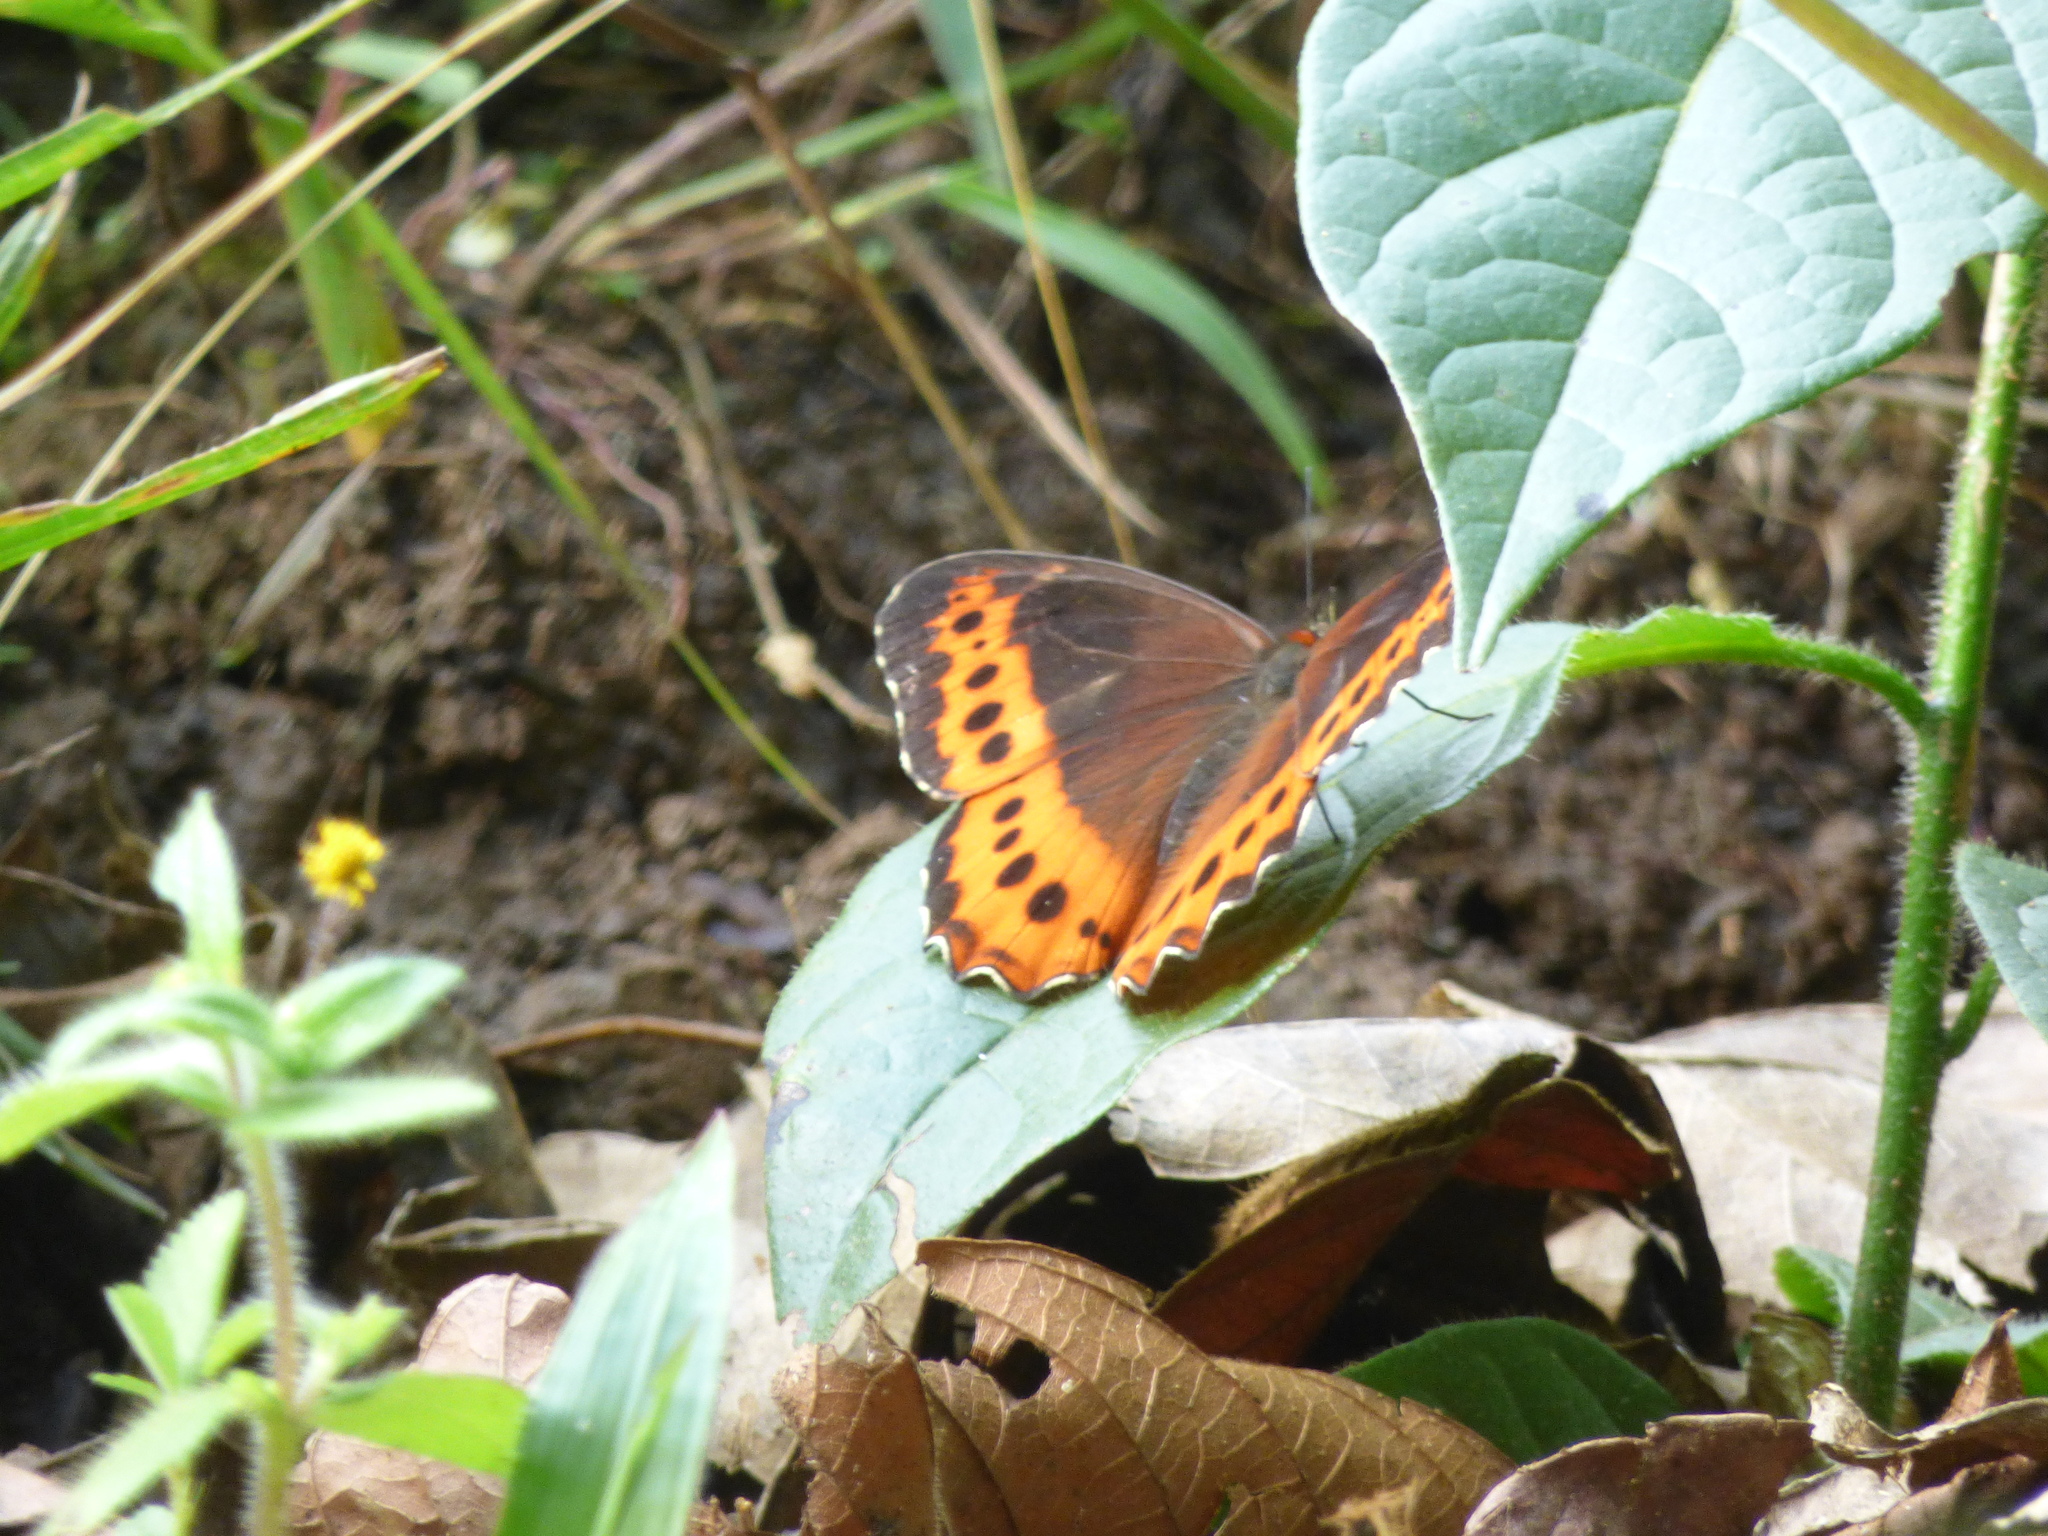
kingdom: Animalia
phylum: Arthropoda
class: Insecta
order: Lepidoptera
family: Nymphalidae
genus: Oxeoschistus
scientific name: Oxeoschistus puerta
